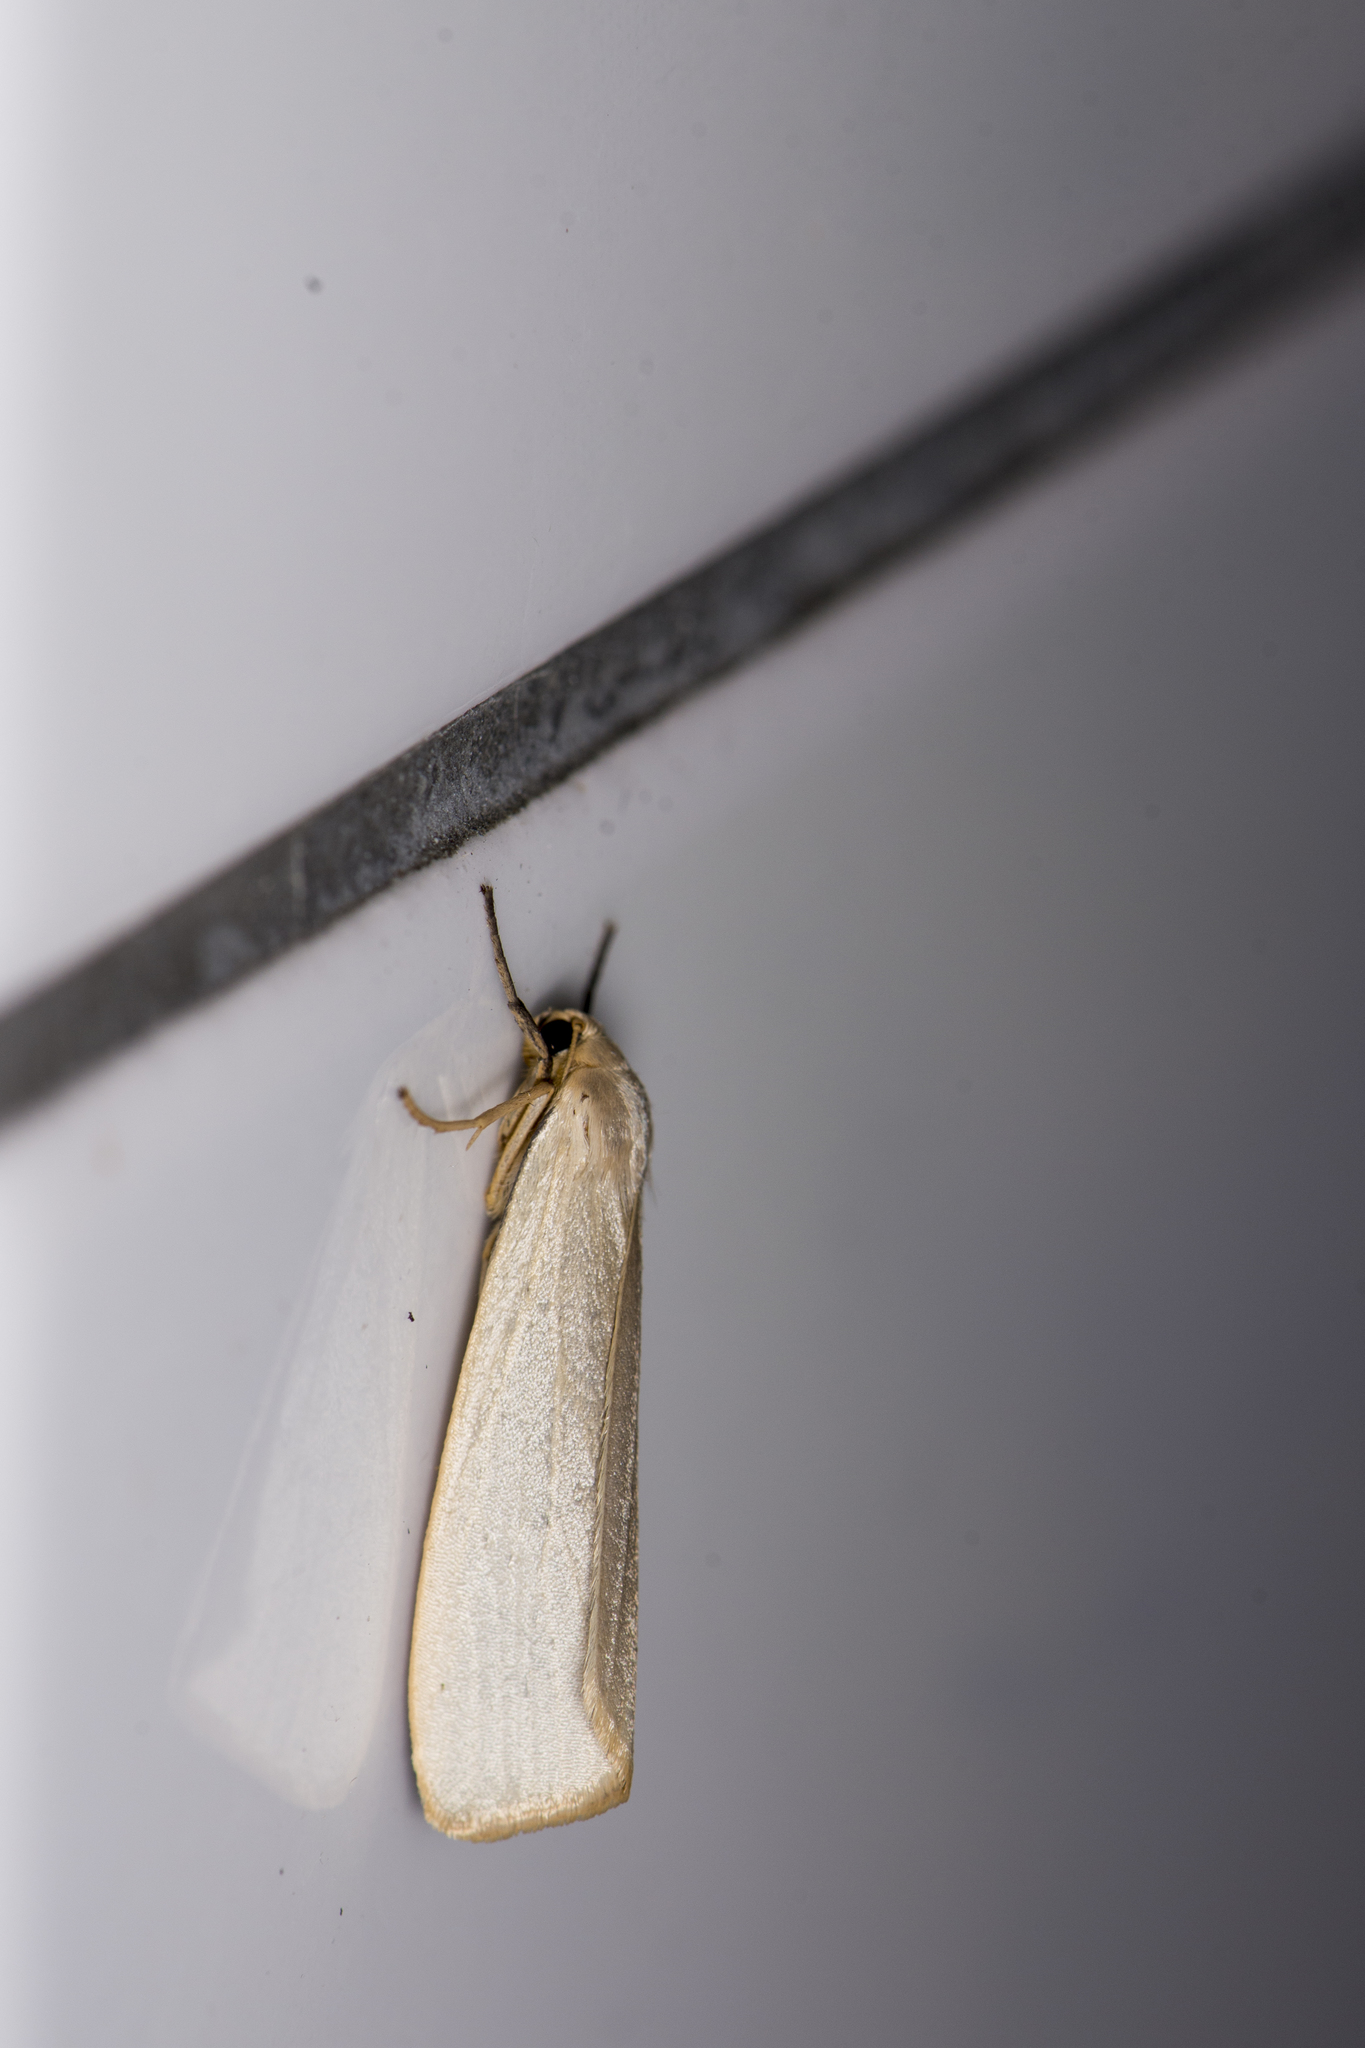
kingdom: Animalia
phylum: Arthropoda
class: Insecta
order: Lepidoptera
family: Erebidae
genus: Ghoria
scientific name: Ghoria tecta
